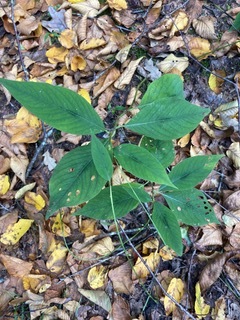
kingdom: Plantae
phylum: Tracheophyta
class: Magnoliopsida
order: Caryophyllales
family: Polygonaceae
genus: Persicaria
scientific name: Persicaria virginiana
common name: Jumpseed
